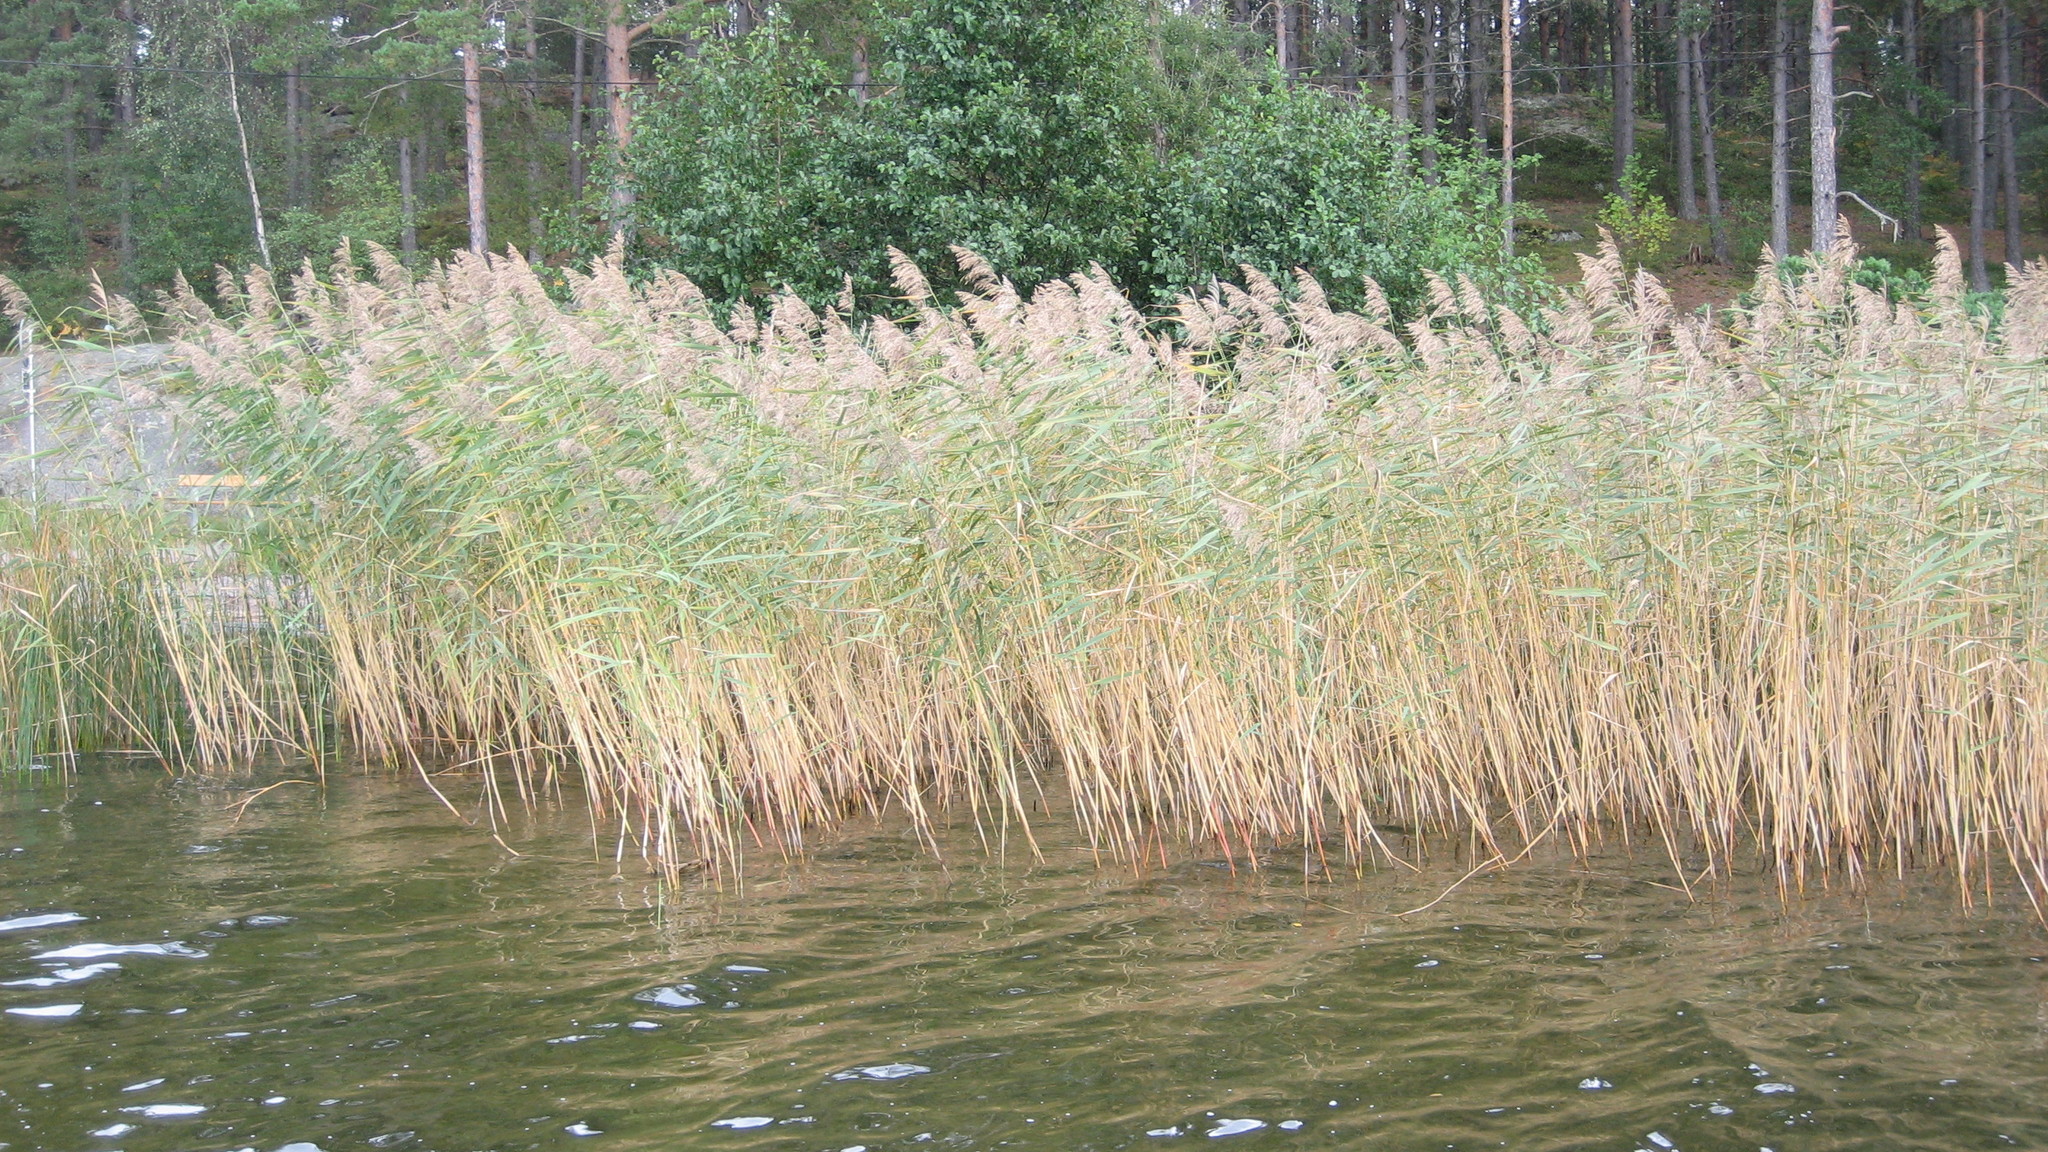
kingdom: Plantae
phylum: Tracheophyta
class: Liliopsida
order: Poales
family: Poaceae
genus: Phragmites
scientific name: Phragmites australis
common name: Common reed
